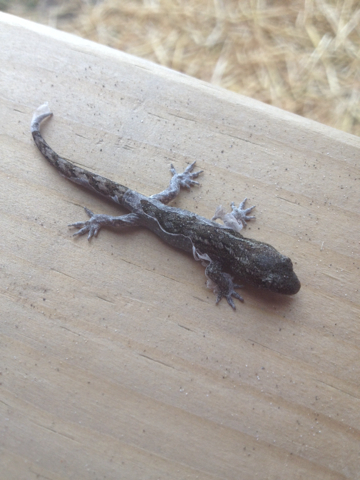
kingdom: Animalia
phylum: Chordata
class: Squamata
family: Diplodactylidae
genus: Woodworthia
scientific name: Woodworthia maculata
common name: Raukawa gecko
